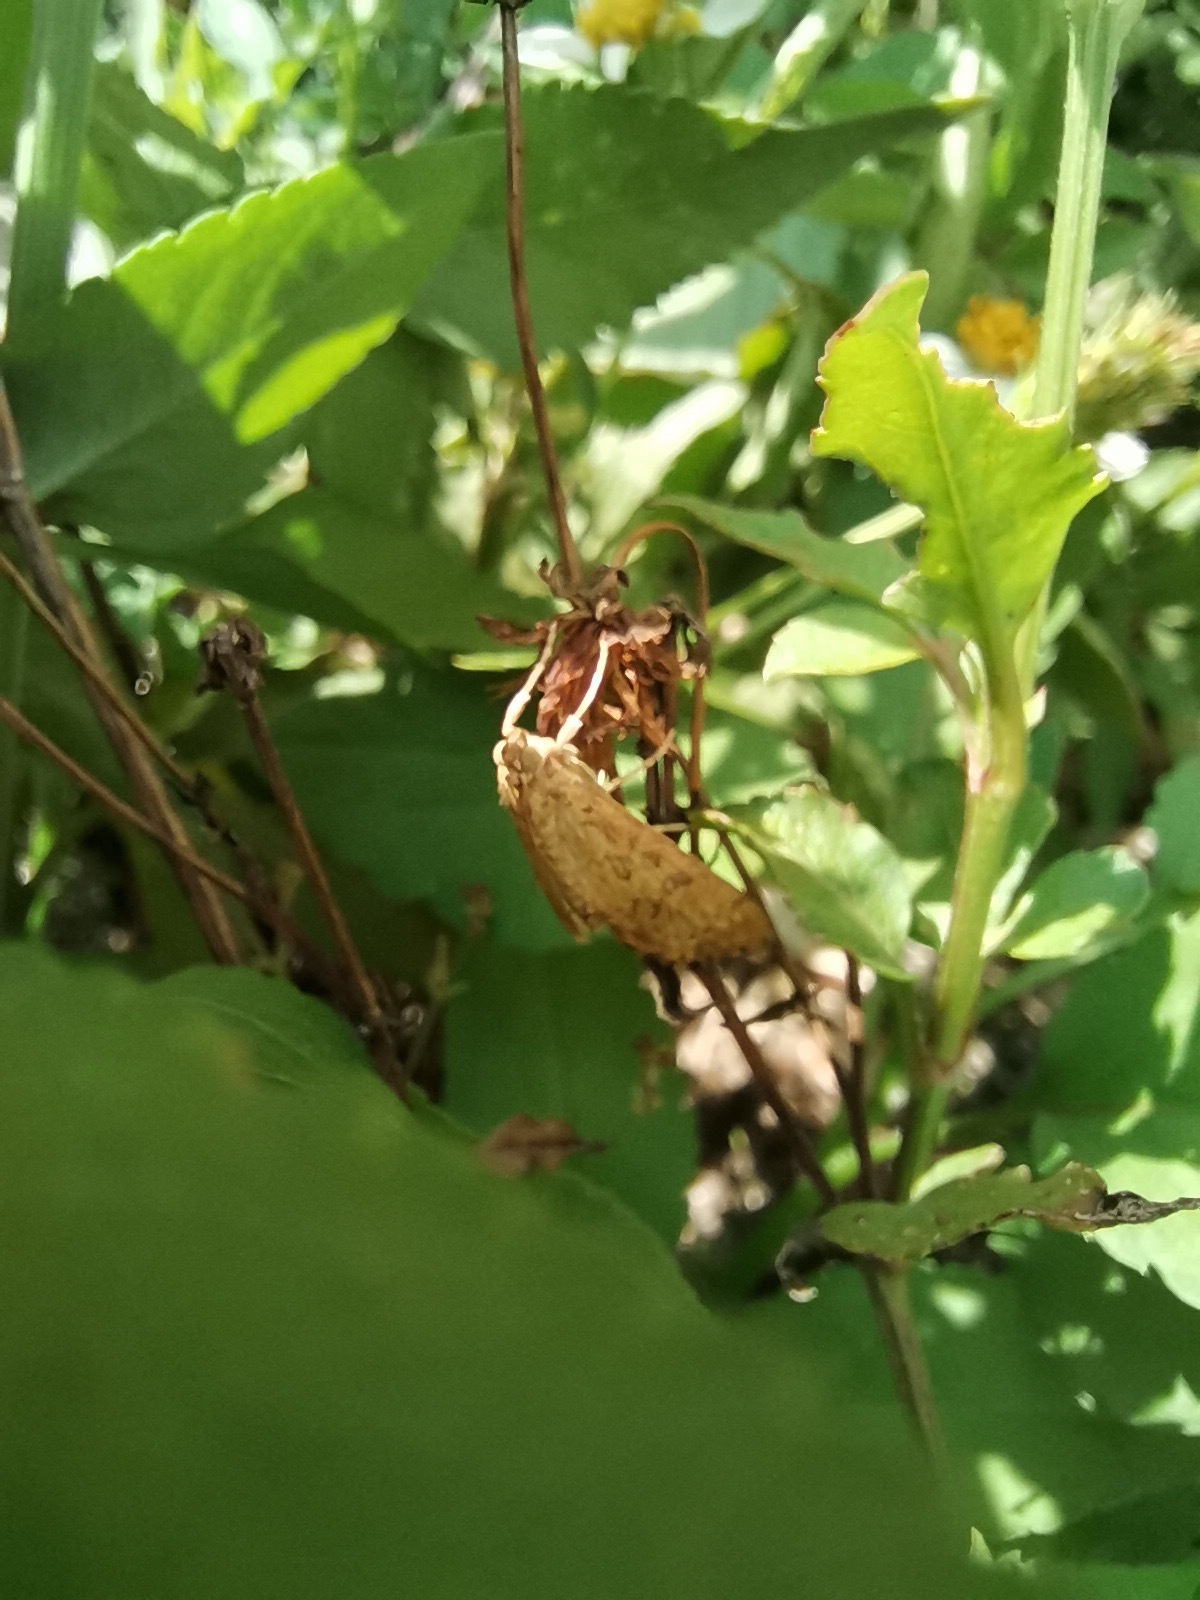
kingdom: Animalia
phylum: Arthropoda
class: Insecta
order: Lepidoptera
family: Crambidae
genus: Asciodes
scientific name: Asciodes gordialis
